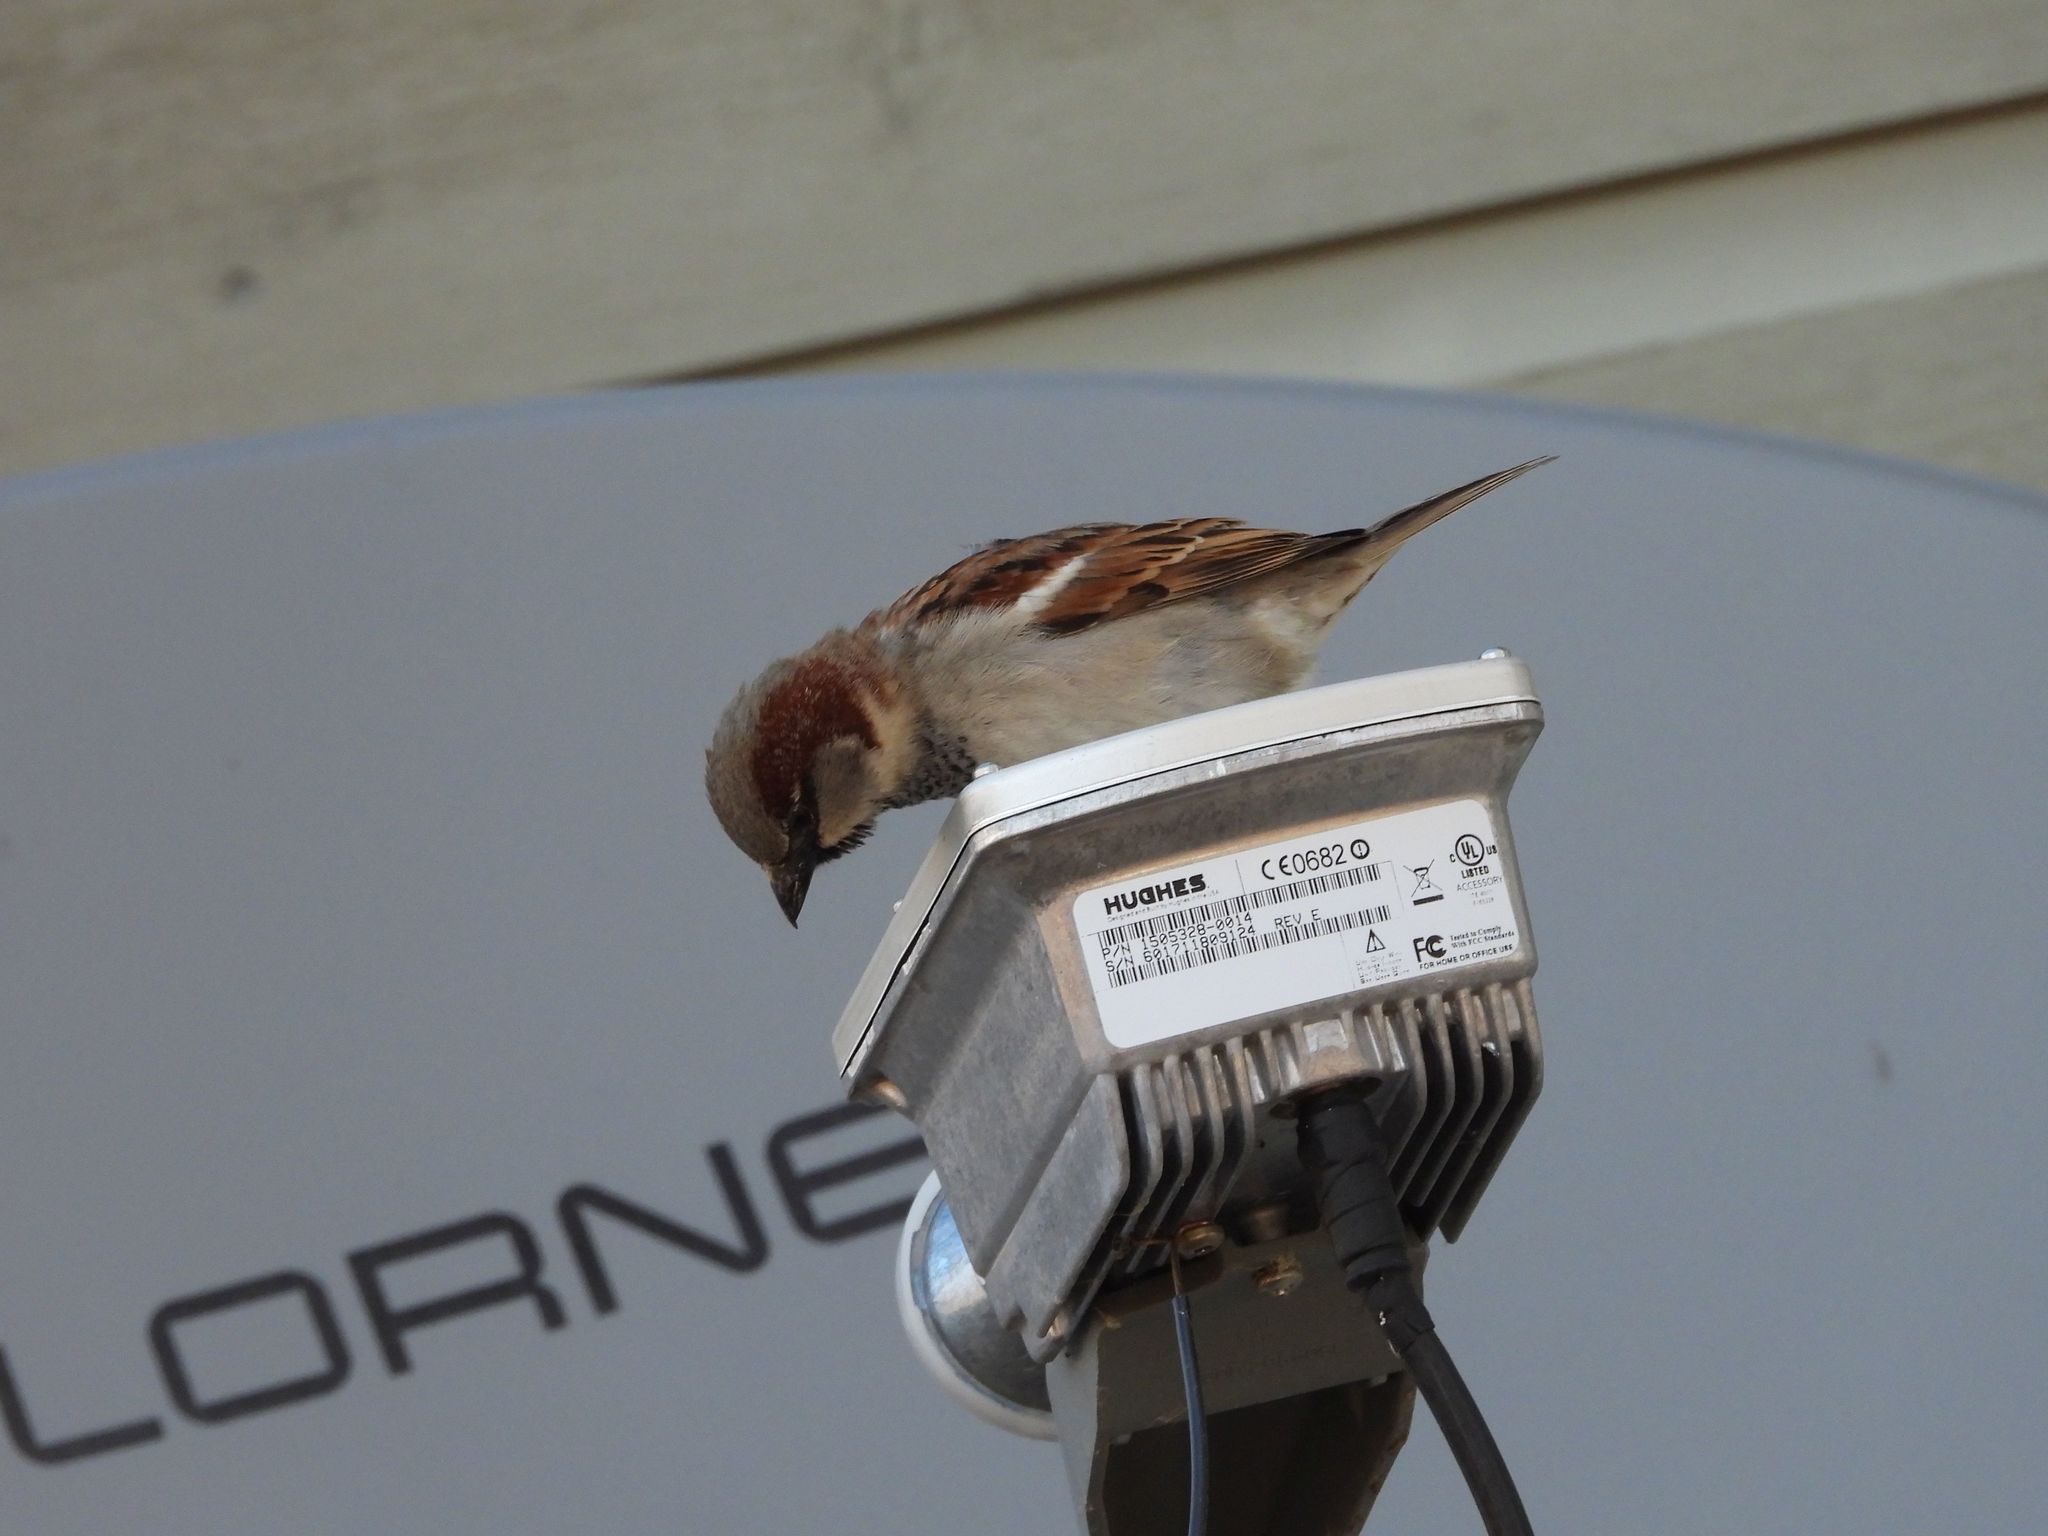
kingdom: Animalia
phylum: Chordata
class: Aves
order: Passeriformes
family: Passeridae
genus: Passer
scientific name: Passer domesticus
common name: House sparrow
